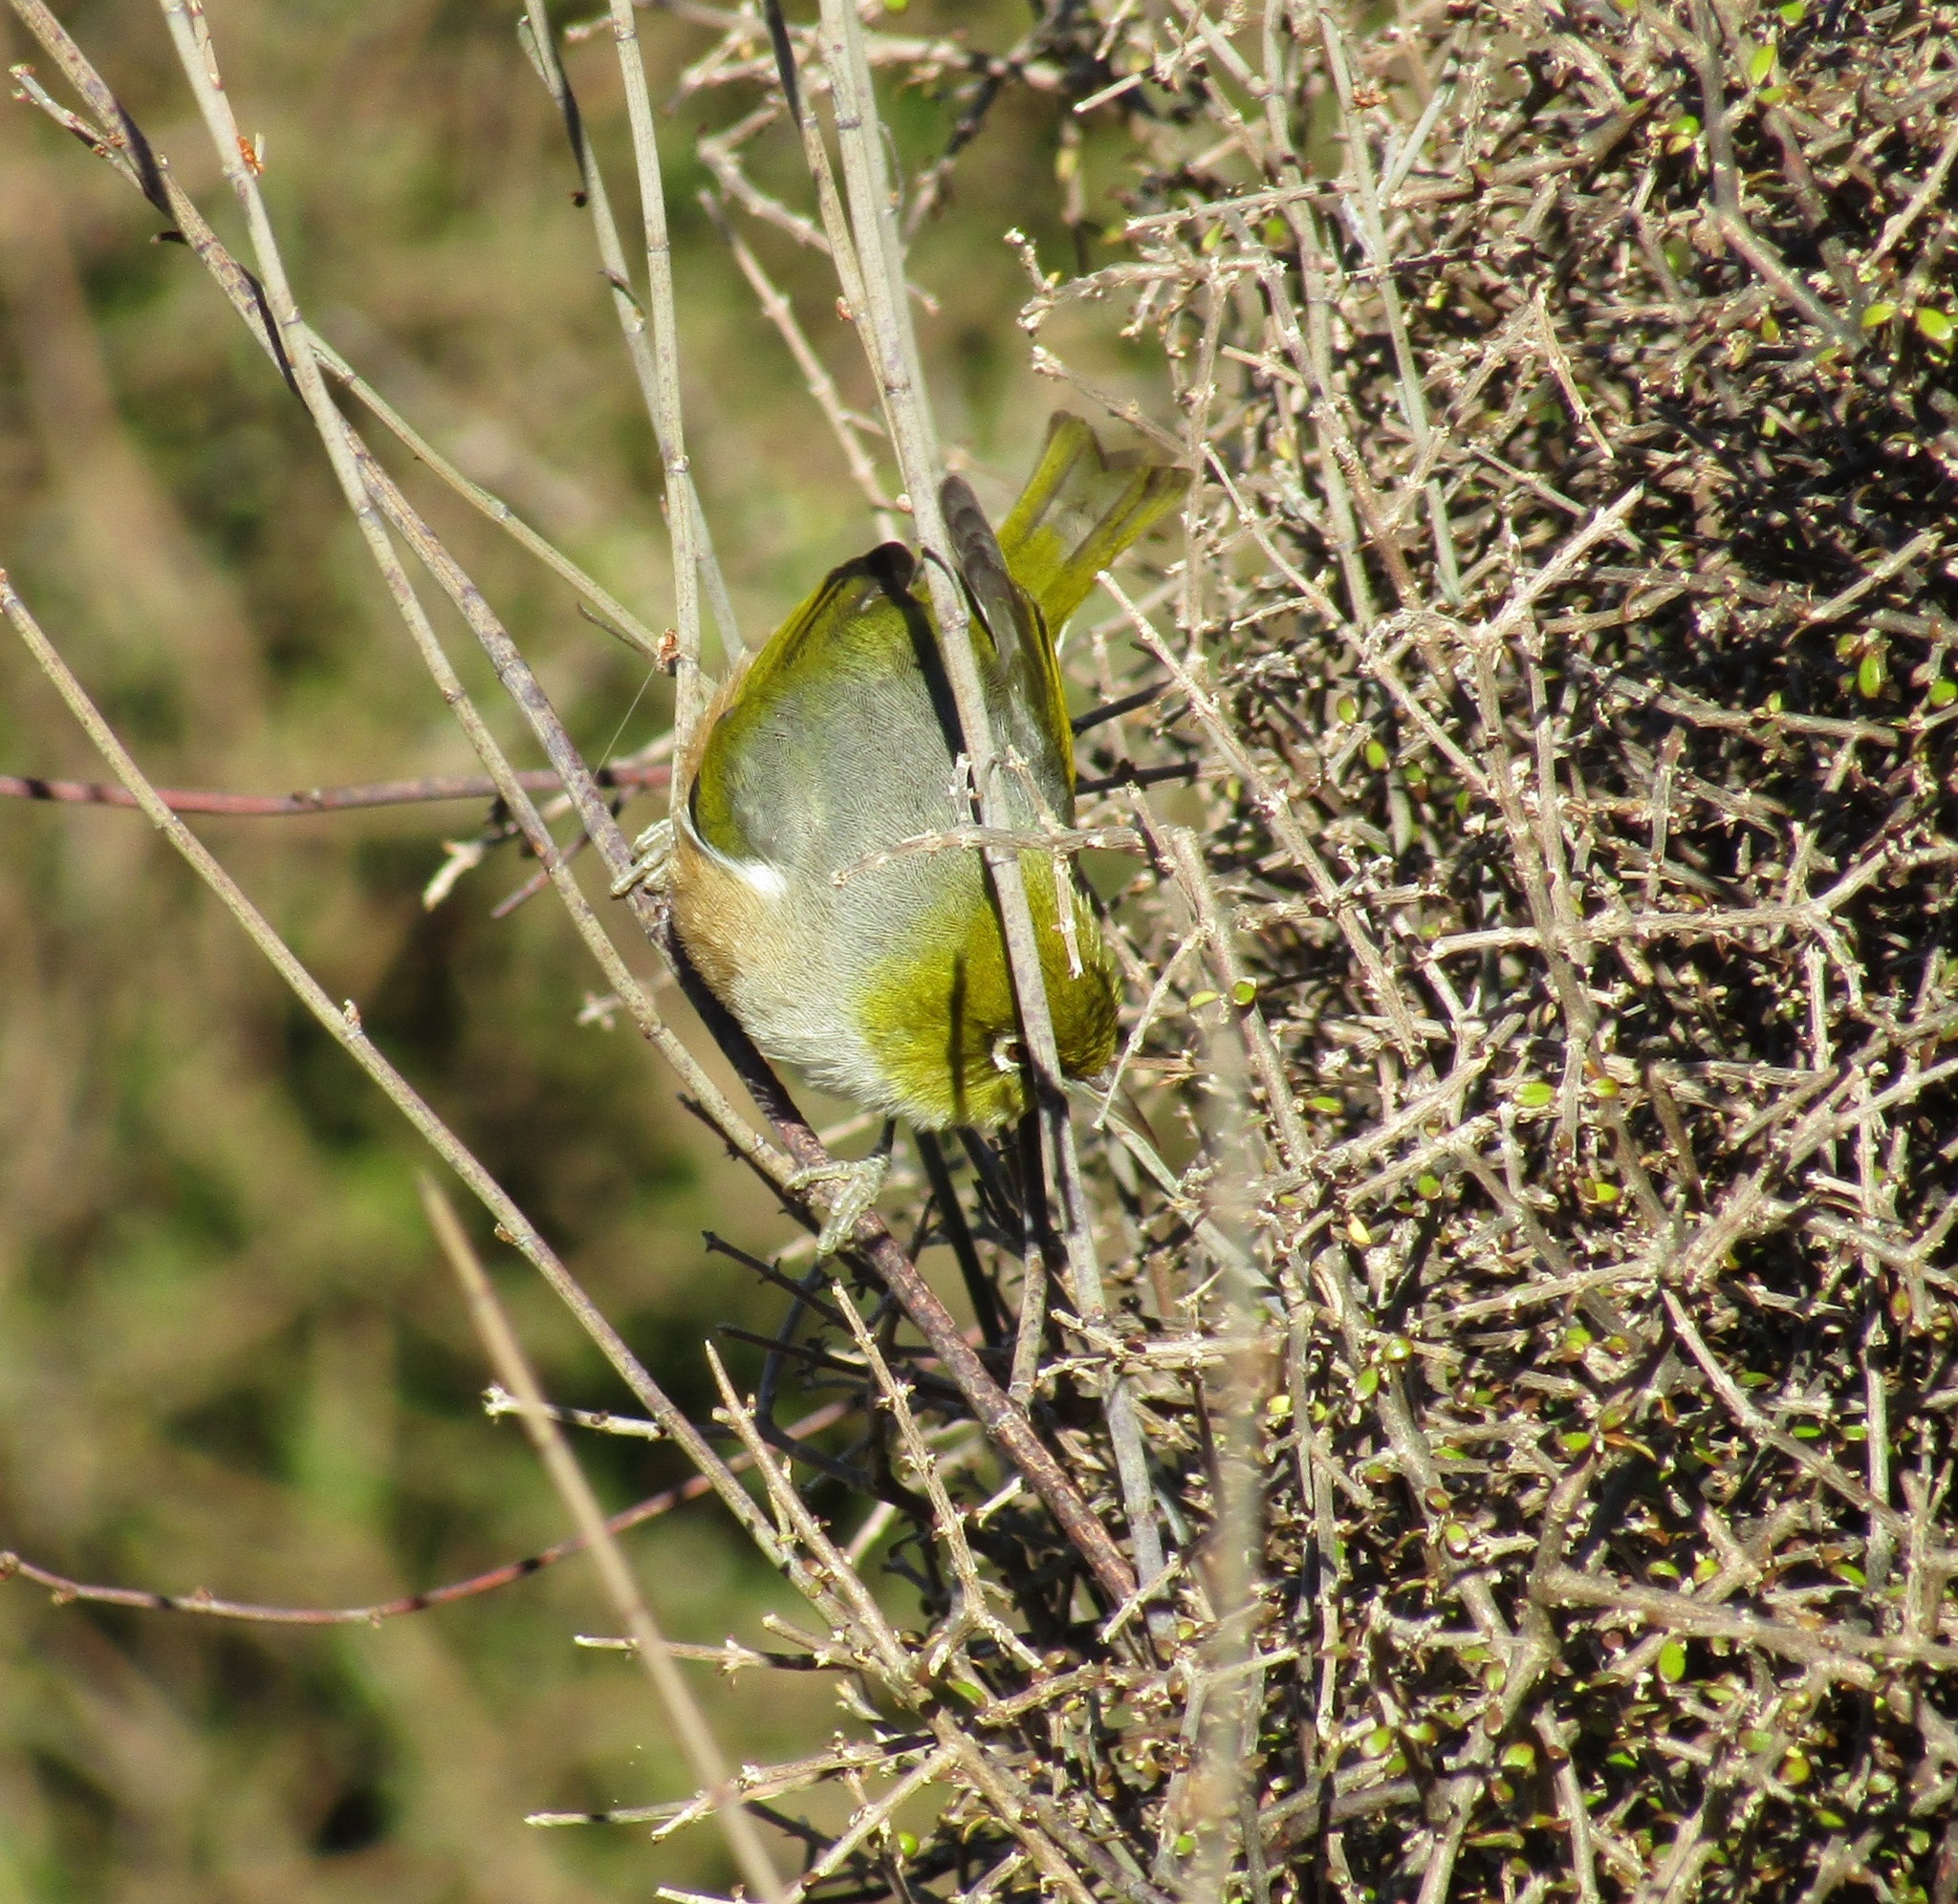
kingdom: Animalia
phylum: Chordata
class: Aves
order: Passeriformes
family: Zosteropidae
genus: Zosterops
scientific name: Zosterops lateralis
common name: Silvereye
